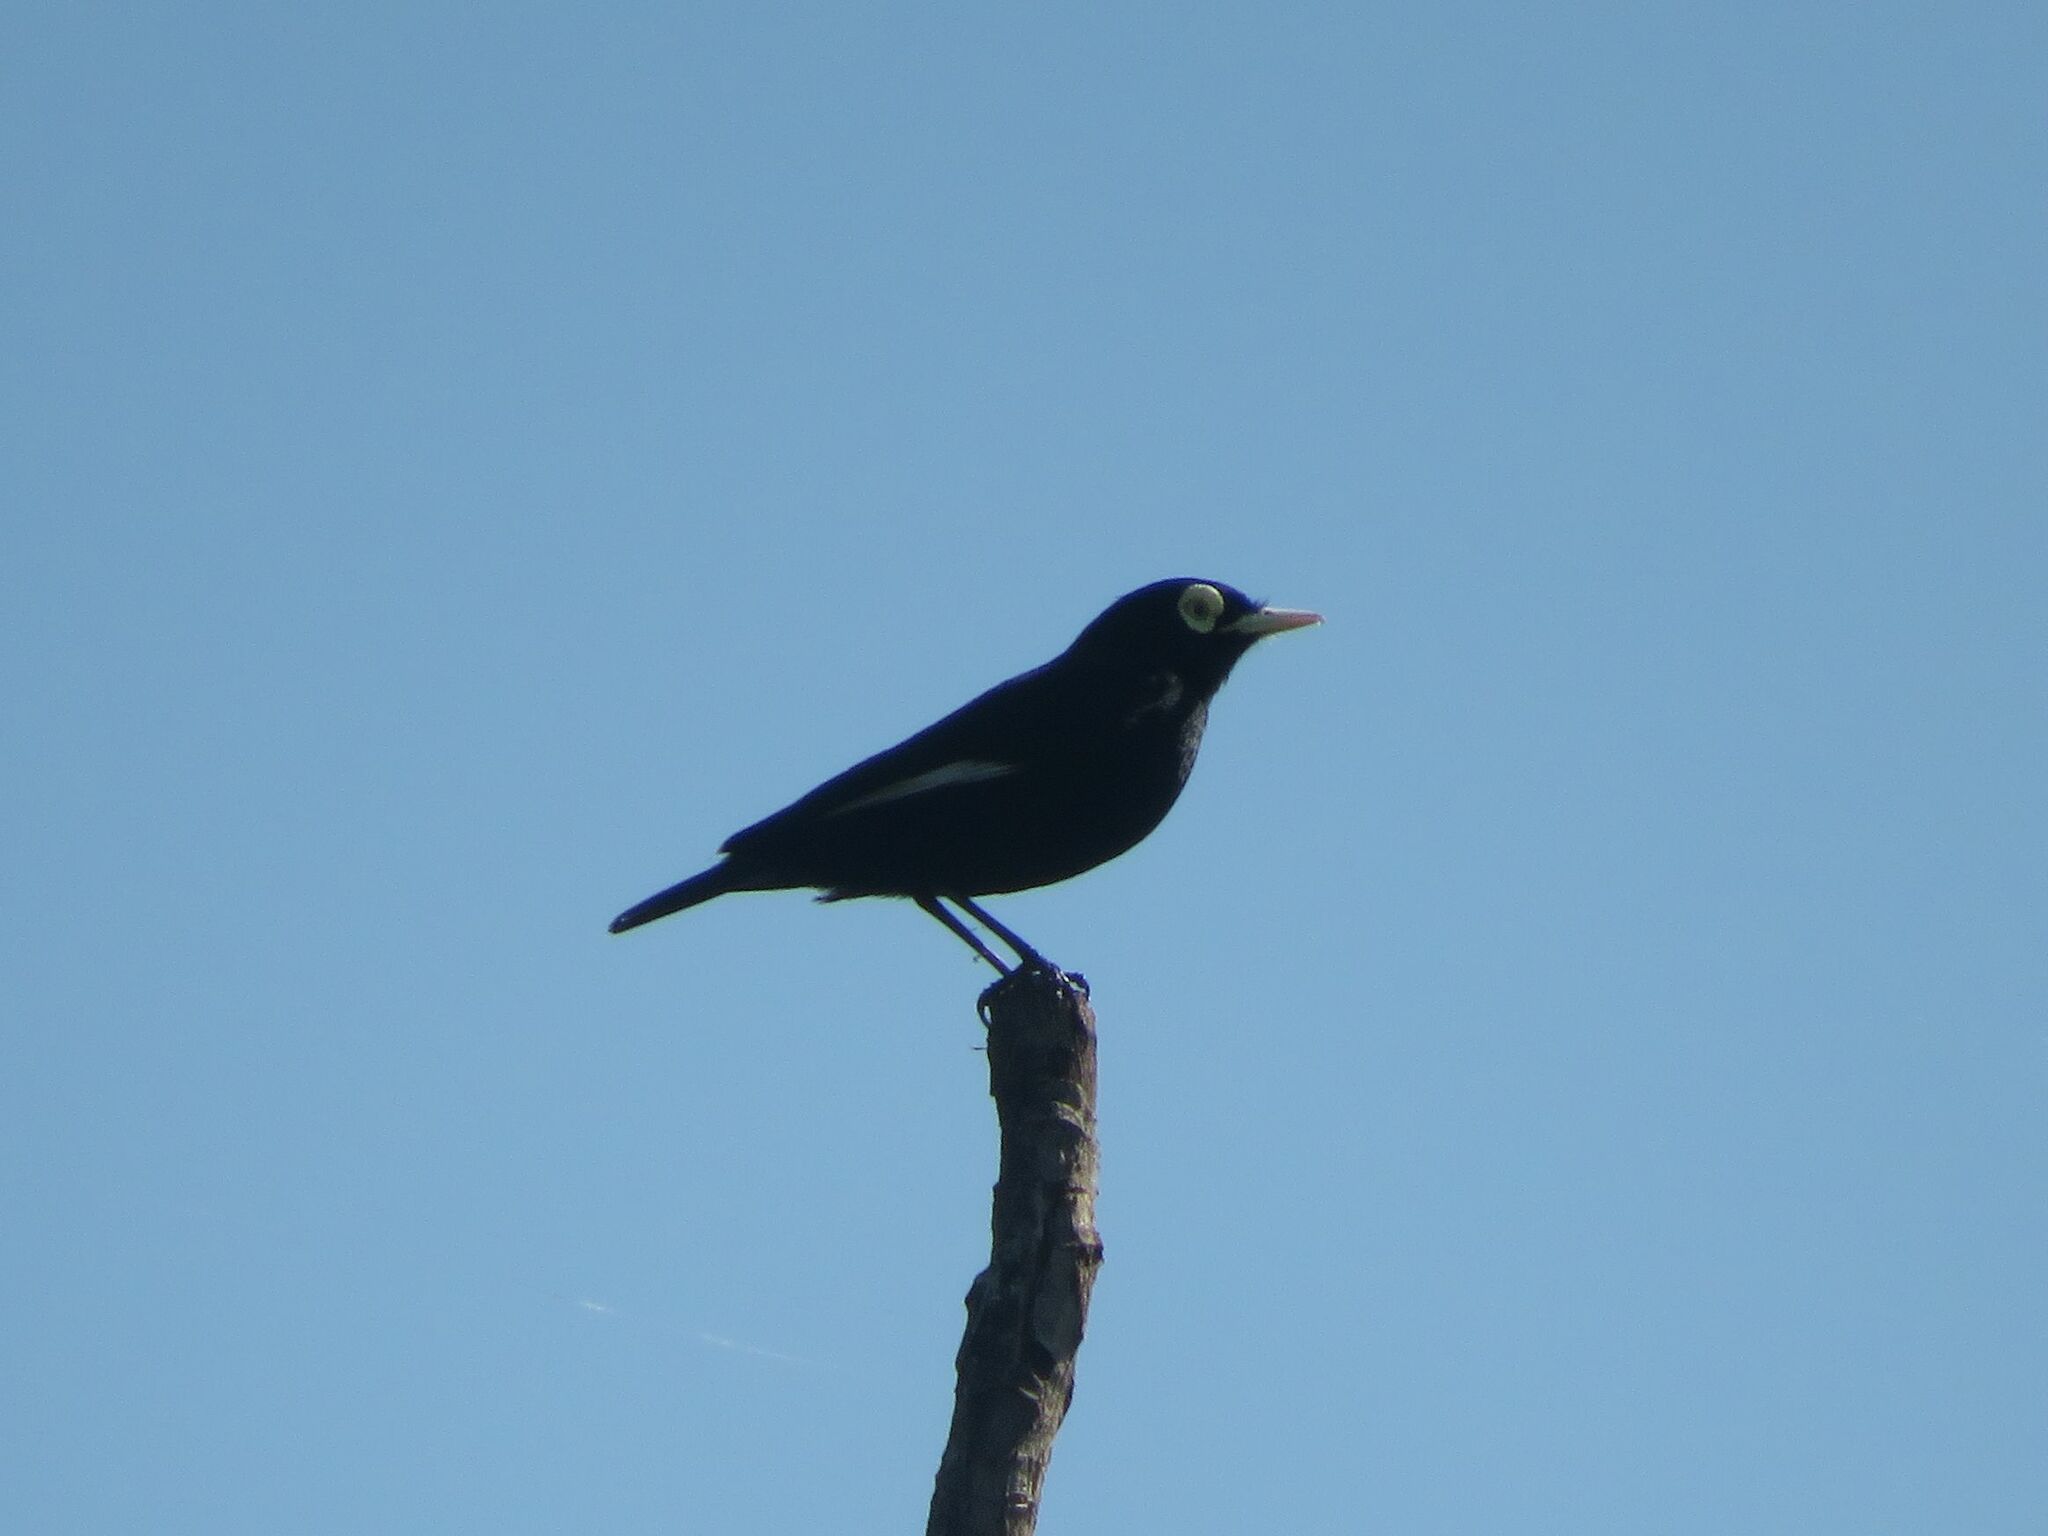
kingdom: Animalia
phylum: Chordata
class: Aves
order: Passeriformes
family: Tyrannidae
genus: Hymenops
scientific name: Hymenops perspicillatus
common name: Spectacled tyrant
